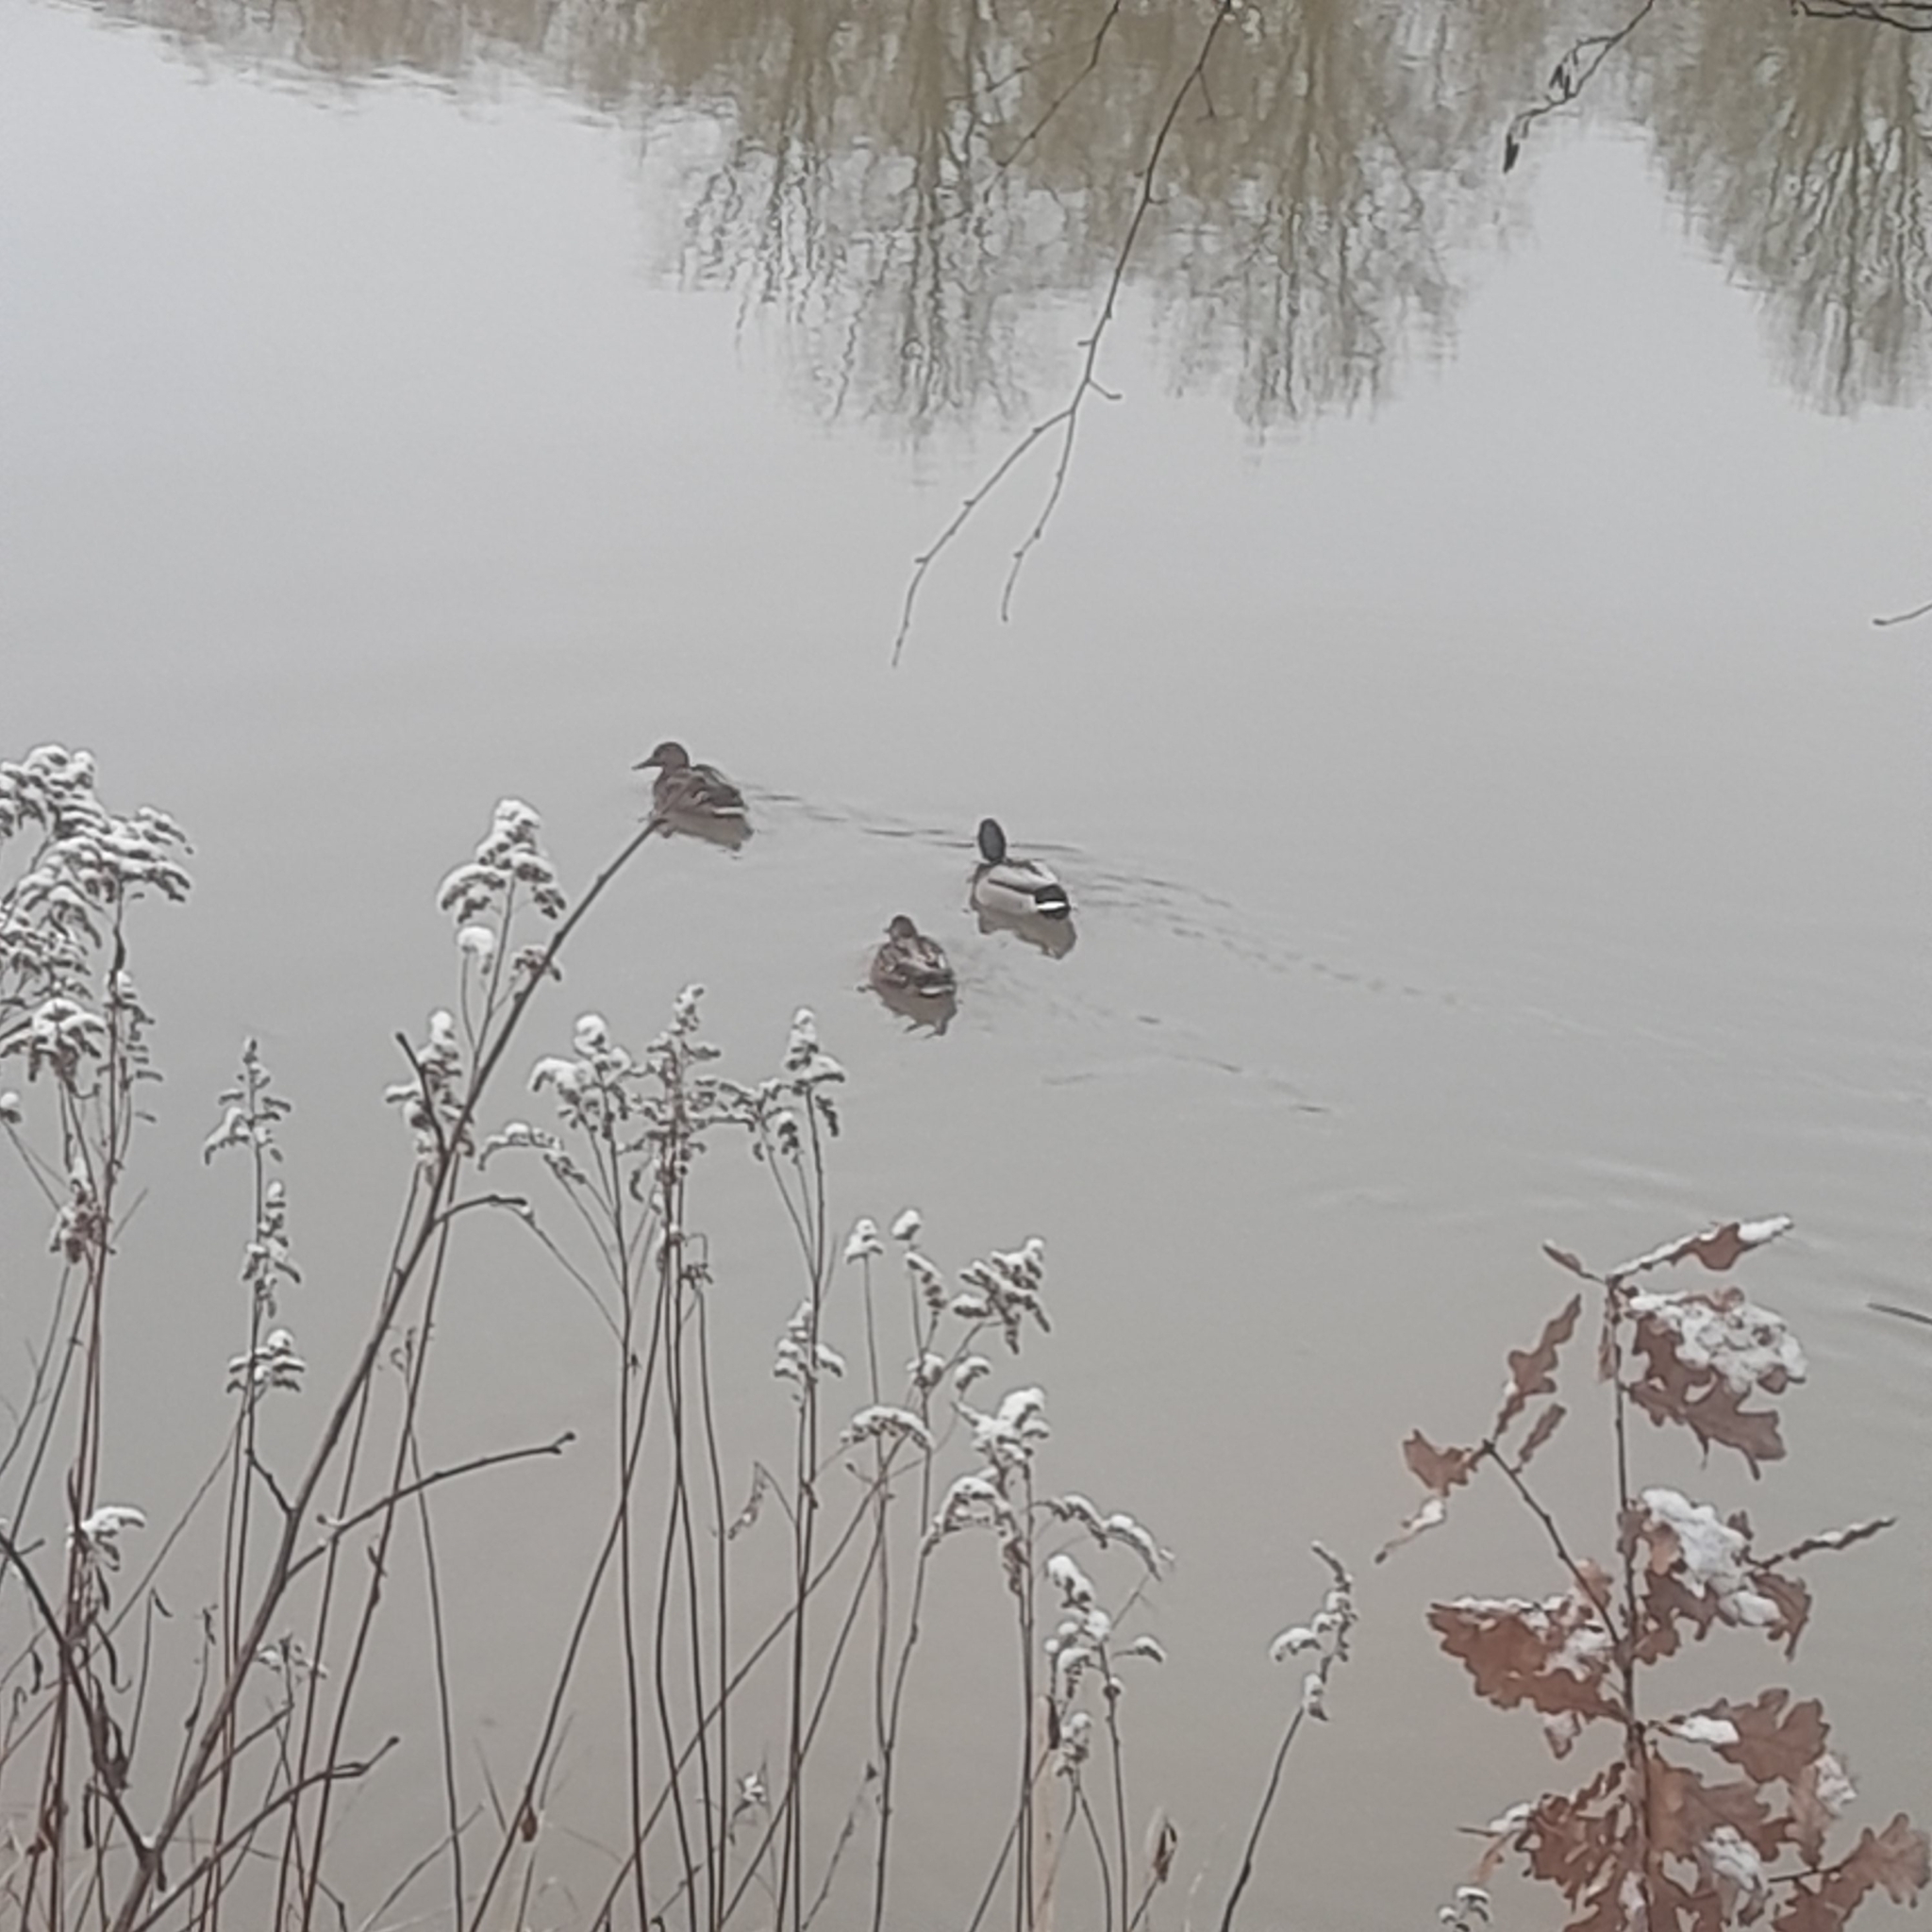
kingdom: Animalia
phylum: Chordata
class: Aves
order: Anseriformes
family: Anatidae
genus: Anas
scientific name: Anas platyrhynchos
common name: Mallard
